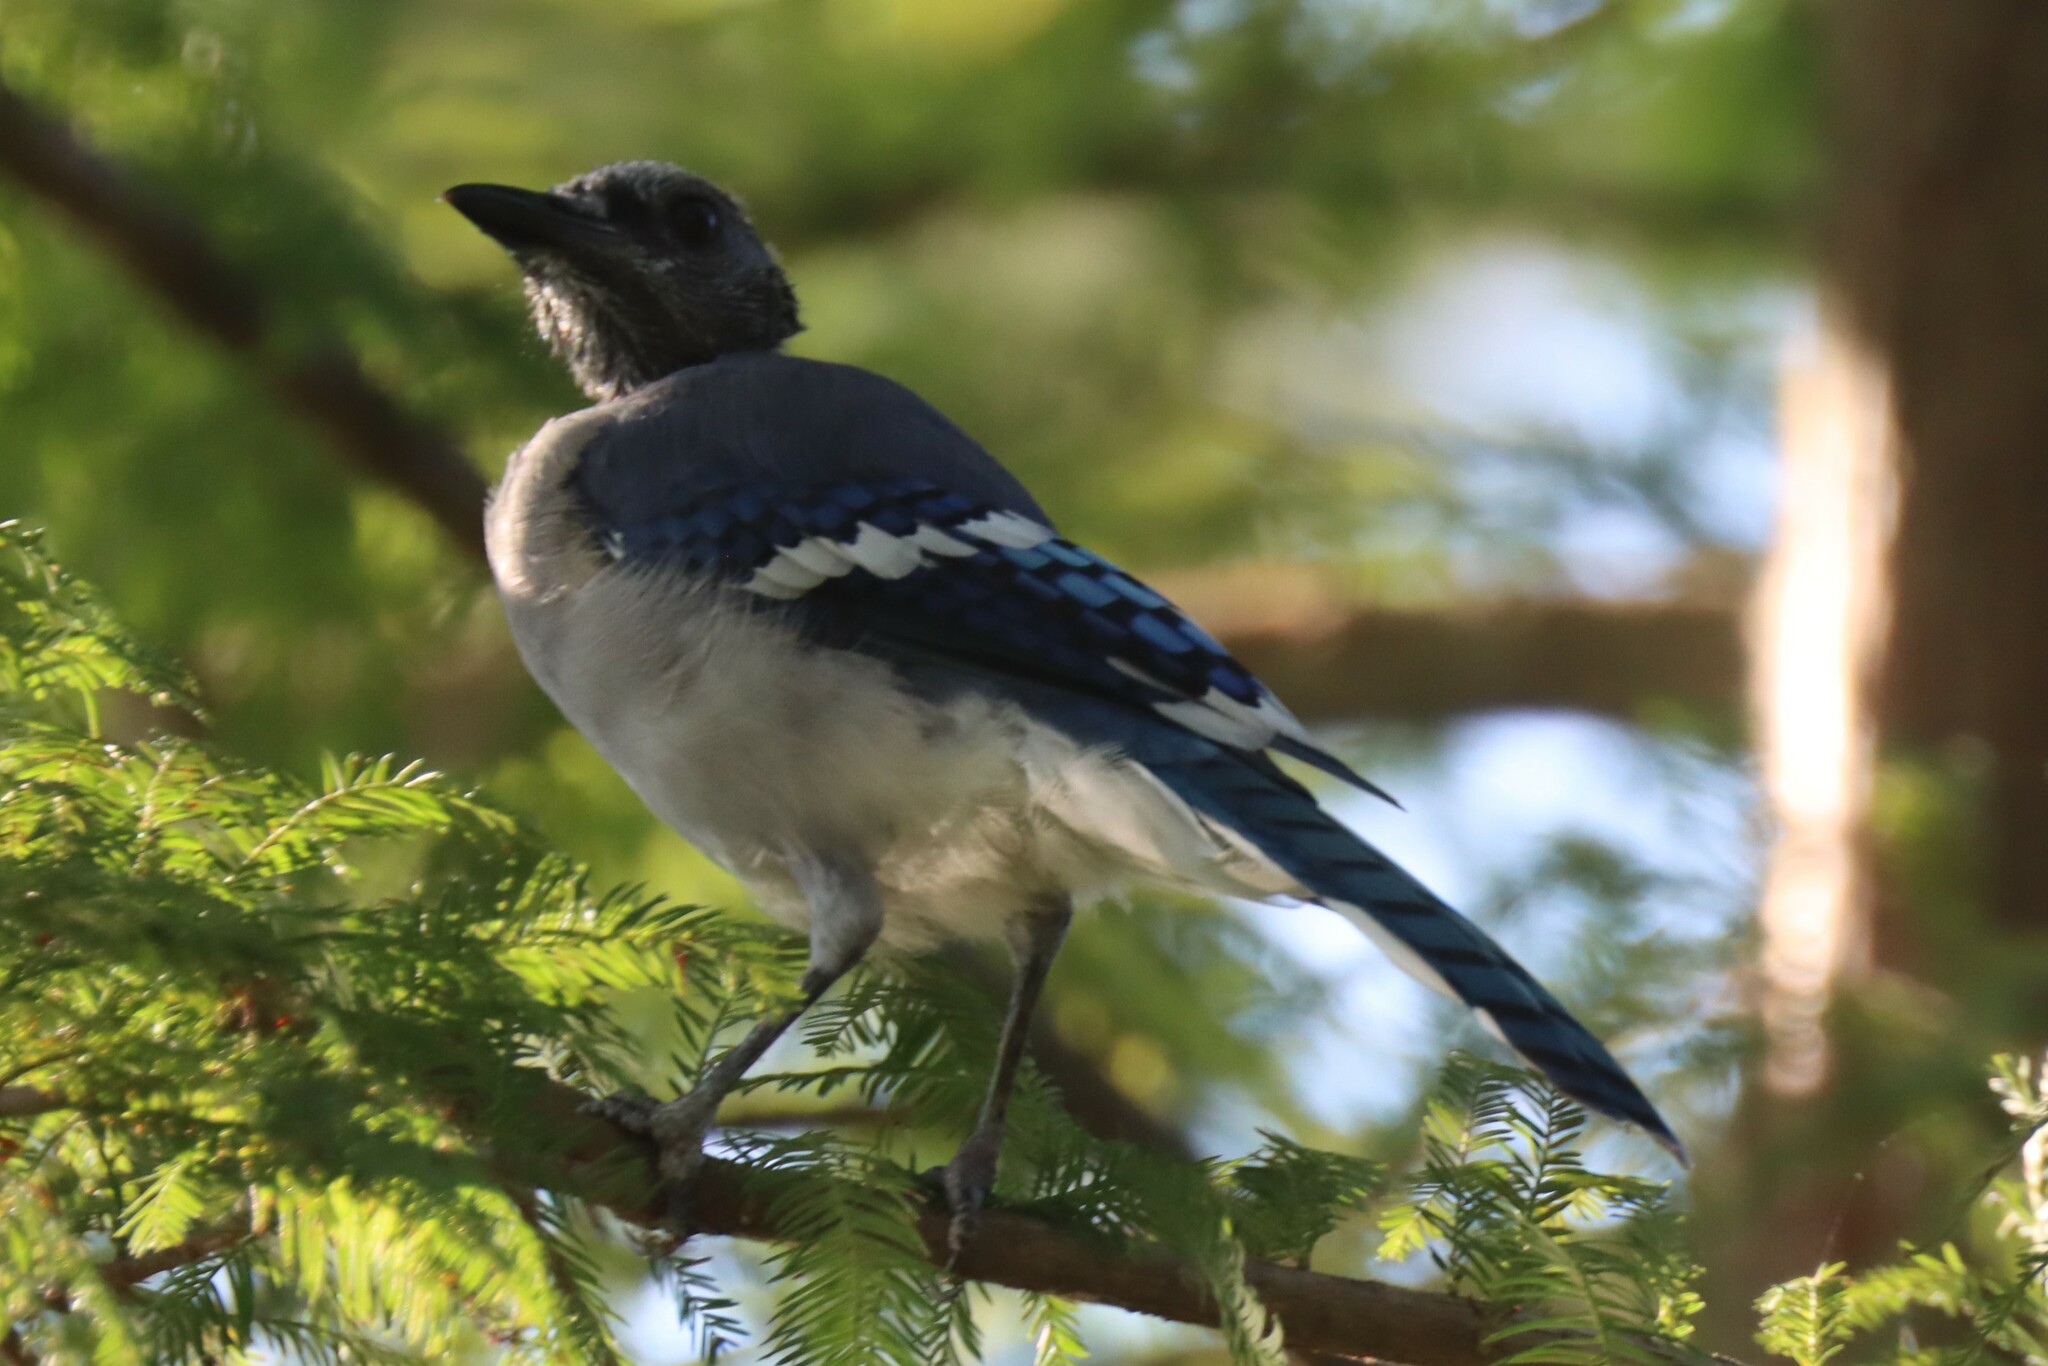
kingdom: Animalia
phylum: Chordata
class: Aves
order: Passeriformes
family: Corvidae
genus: Cyanocitta
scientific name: Cyanocitta cristata
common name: Blue jay
